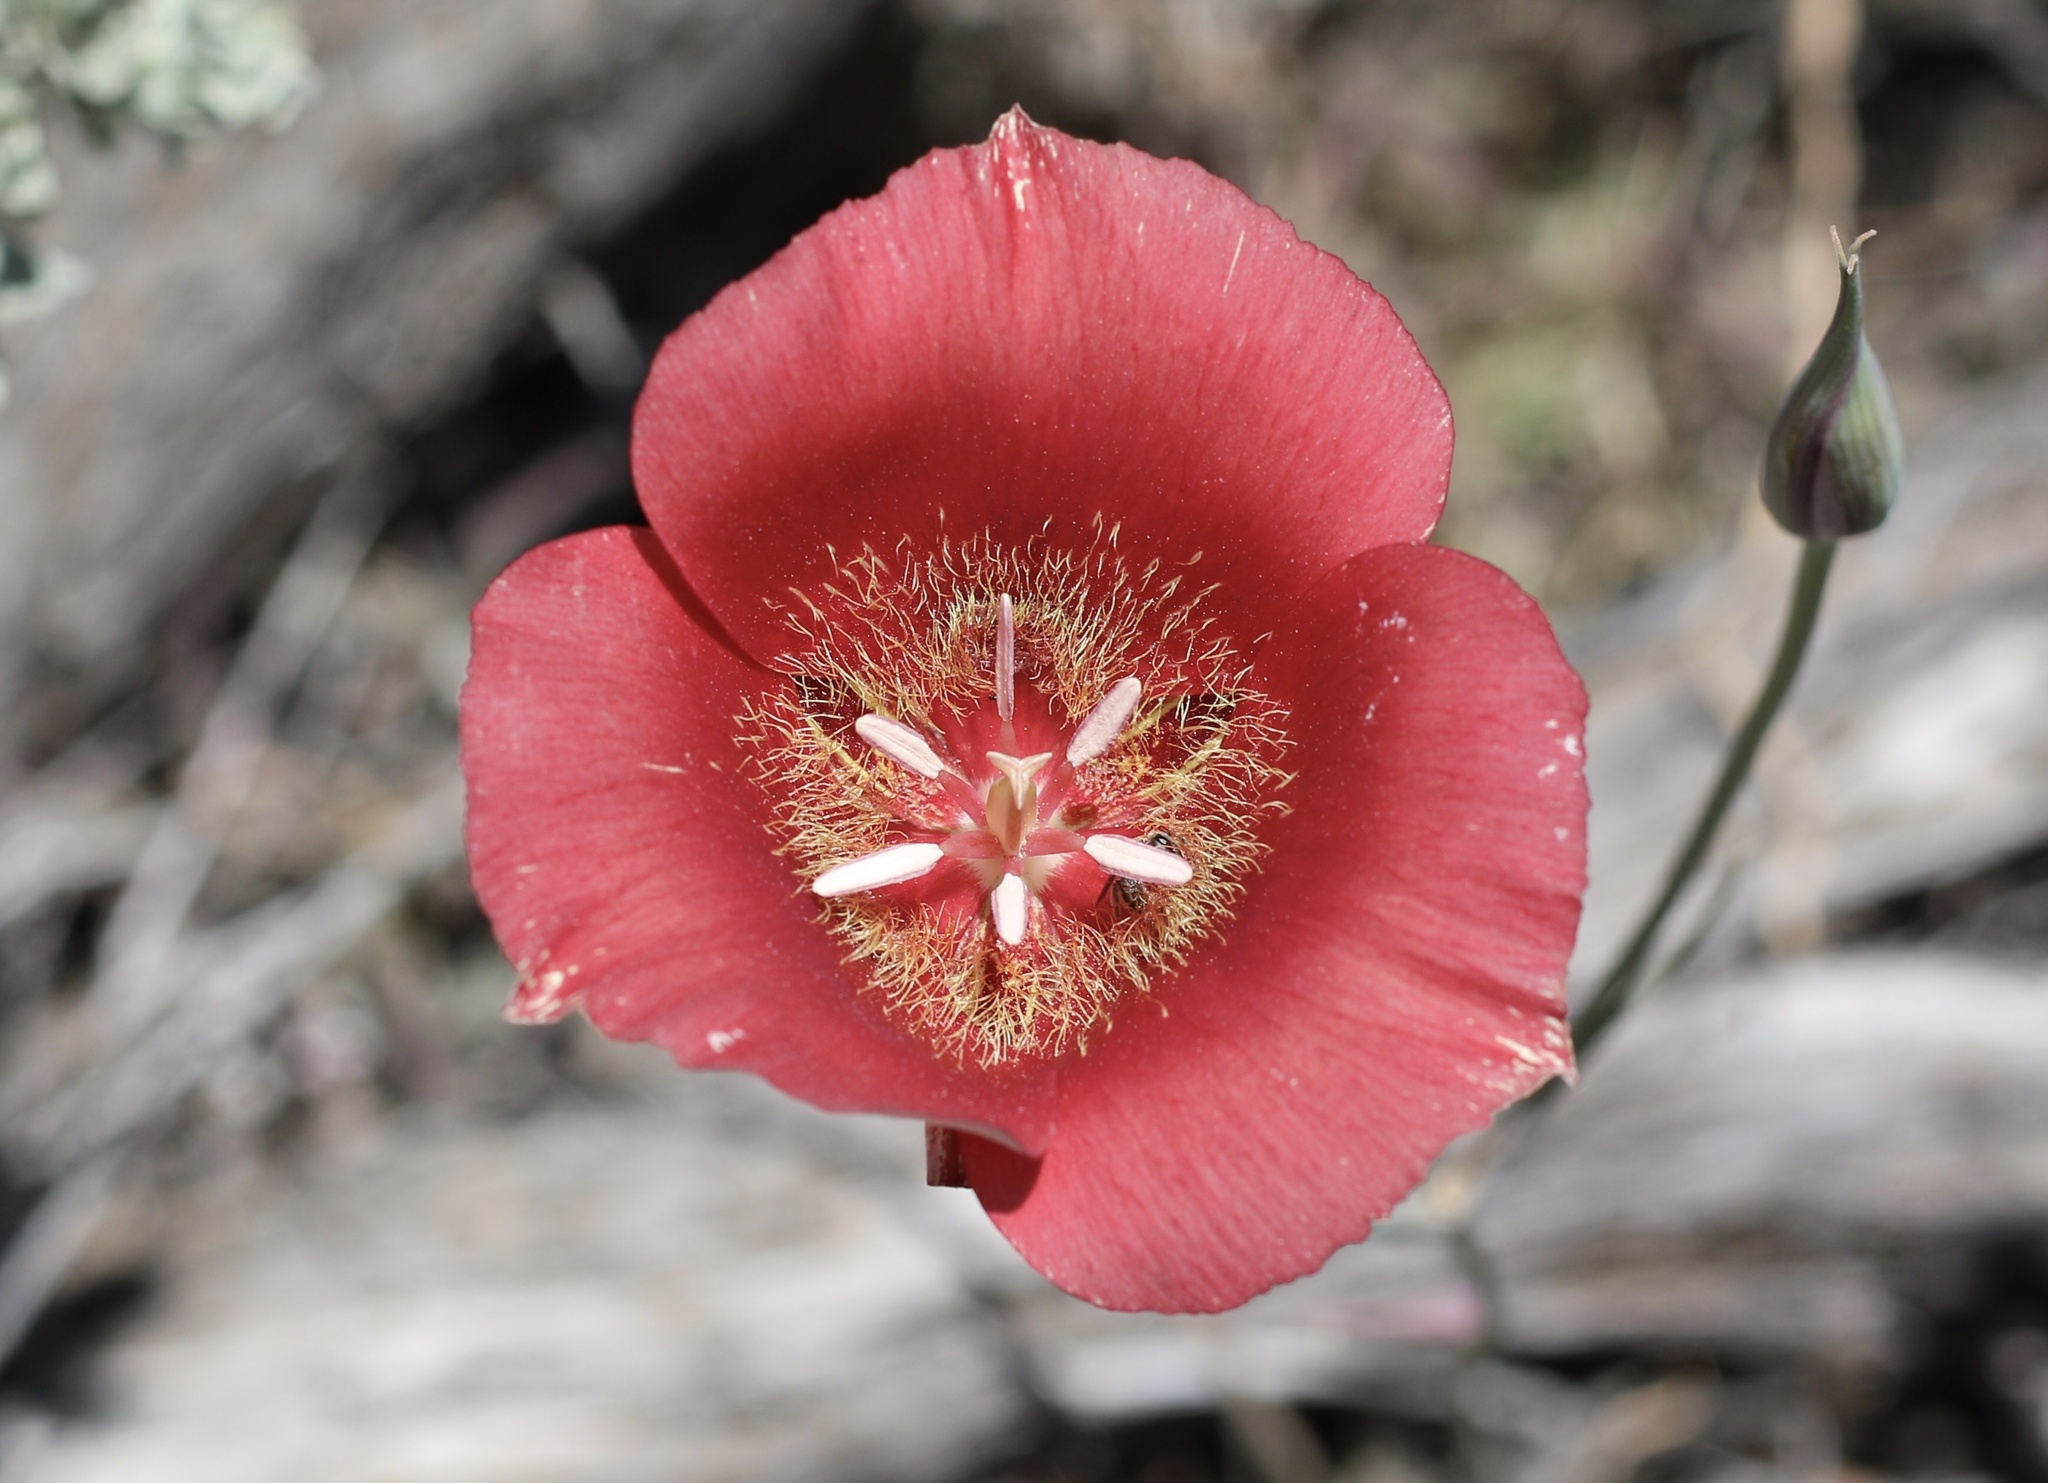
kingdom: Plantae
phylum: Tracheophyta
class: Liliopsida
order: Liliales
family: Liliaceae
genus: Calochortus
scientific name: Calochortus venustus
